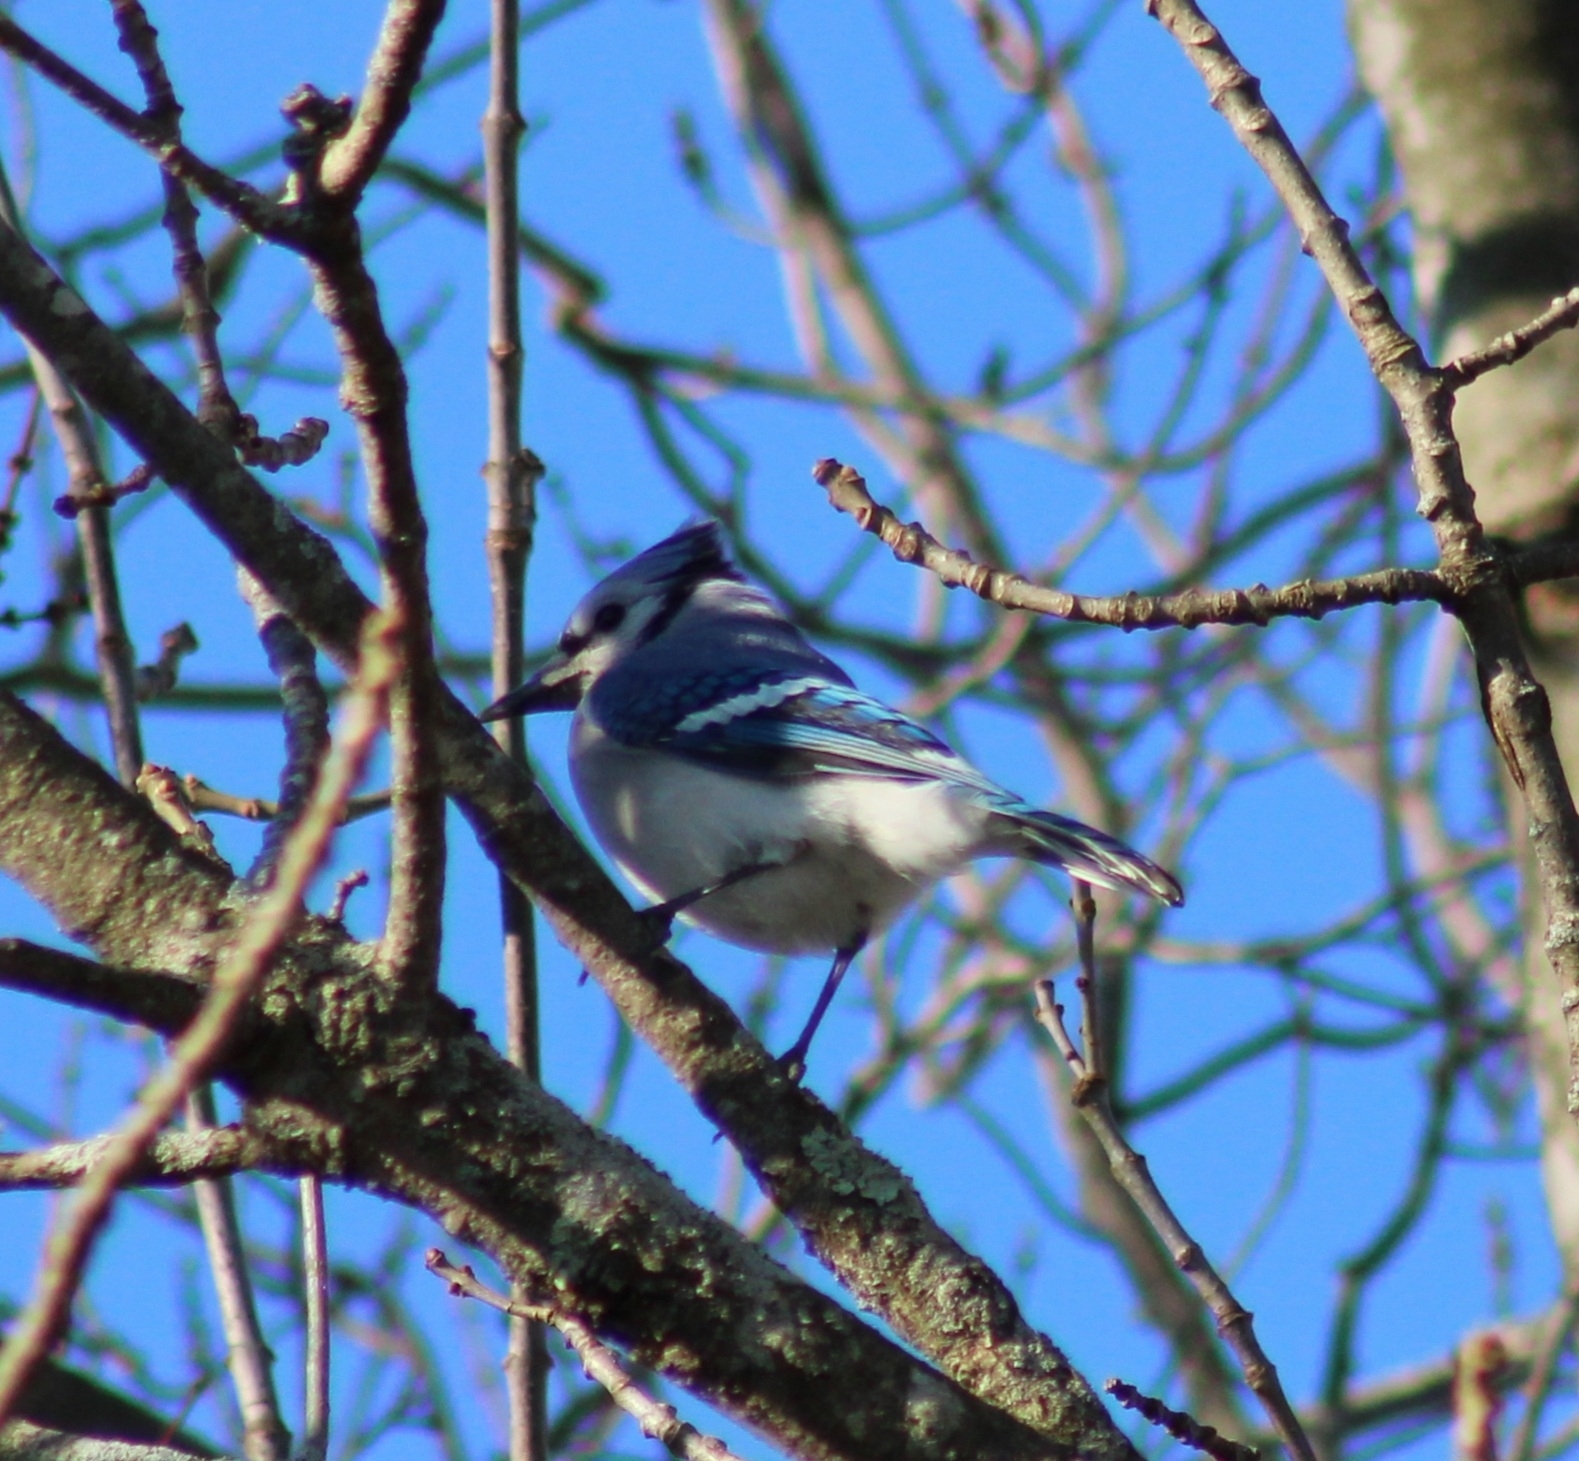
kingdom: Animalia
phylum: Chordata
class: Aves
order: Passeriformes
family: Corvidae
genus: Cyanocitta
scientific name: Cyanocitta cristata
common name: Blue jay
